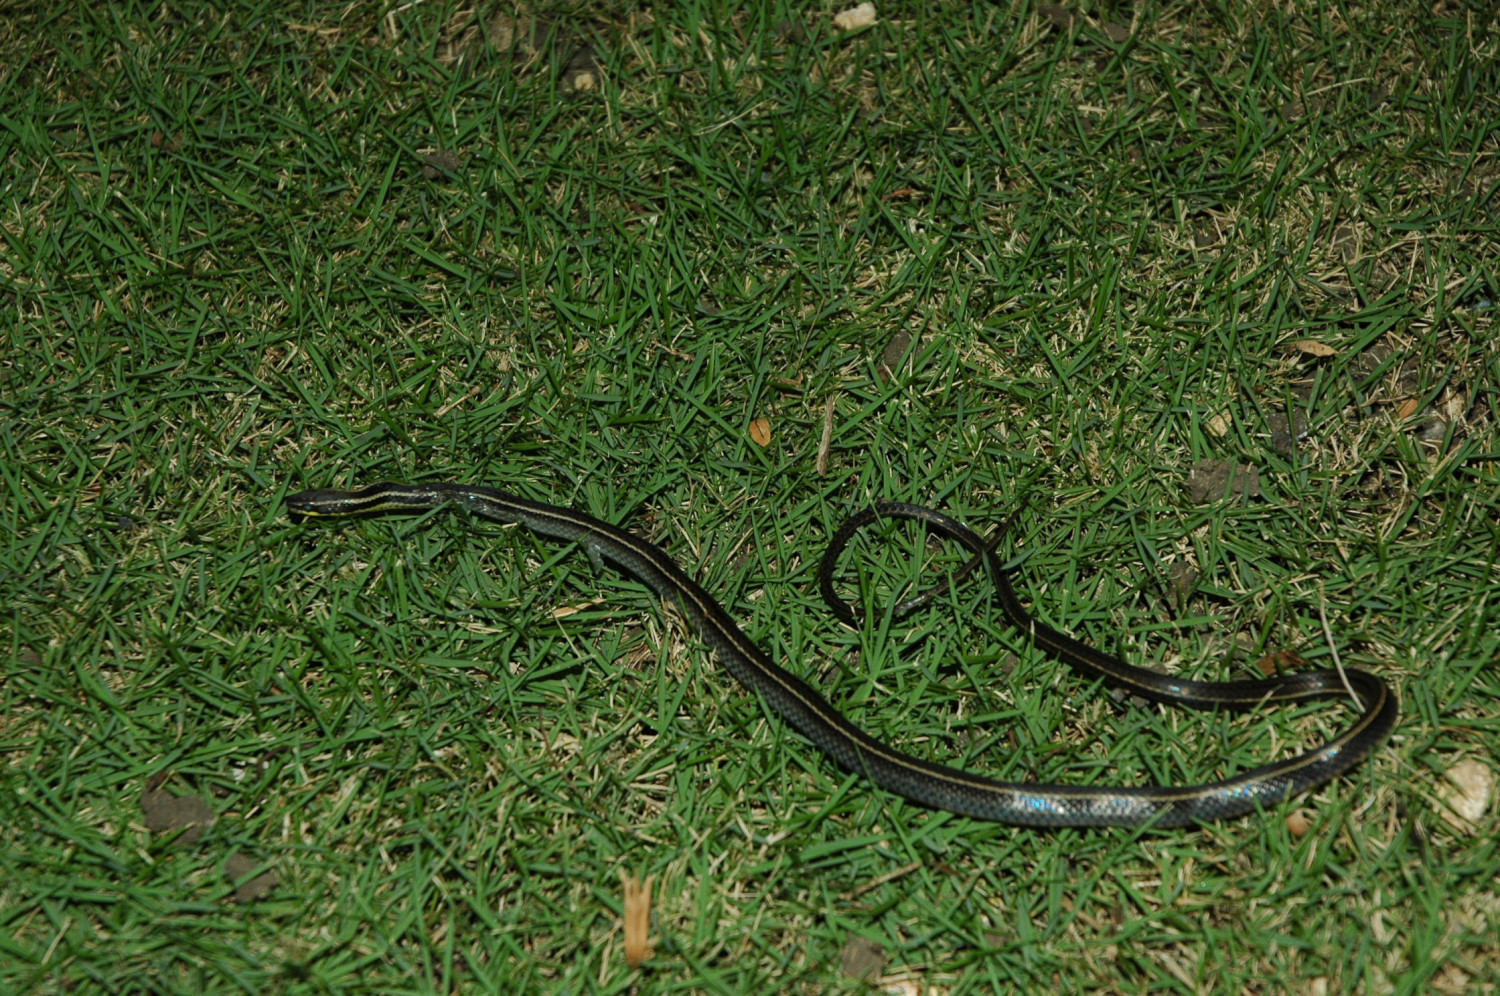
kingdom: Animalia
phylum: Chordata
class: Squamata
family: Colubridae
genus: Hypsirhynchus
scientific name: Hypsirhynchus parvifrons
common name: Cope's antilles snake
